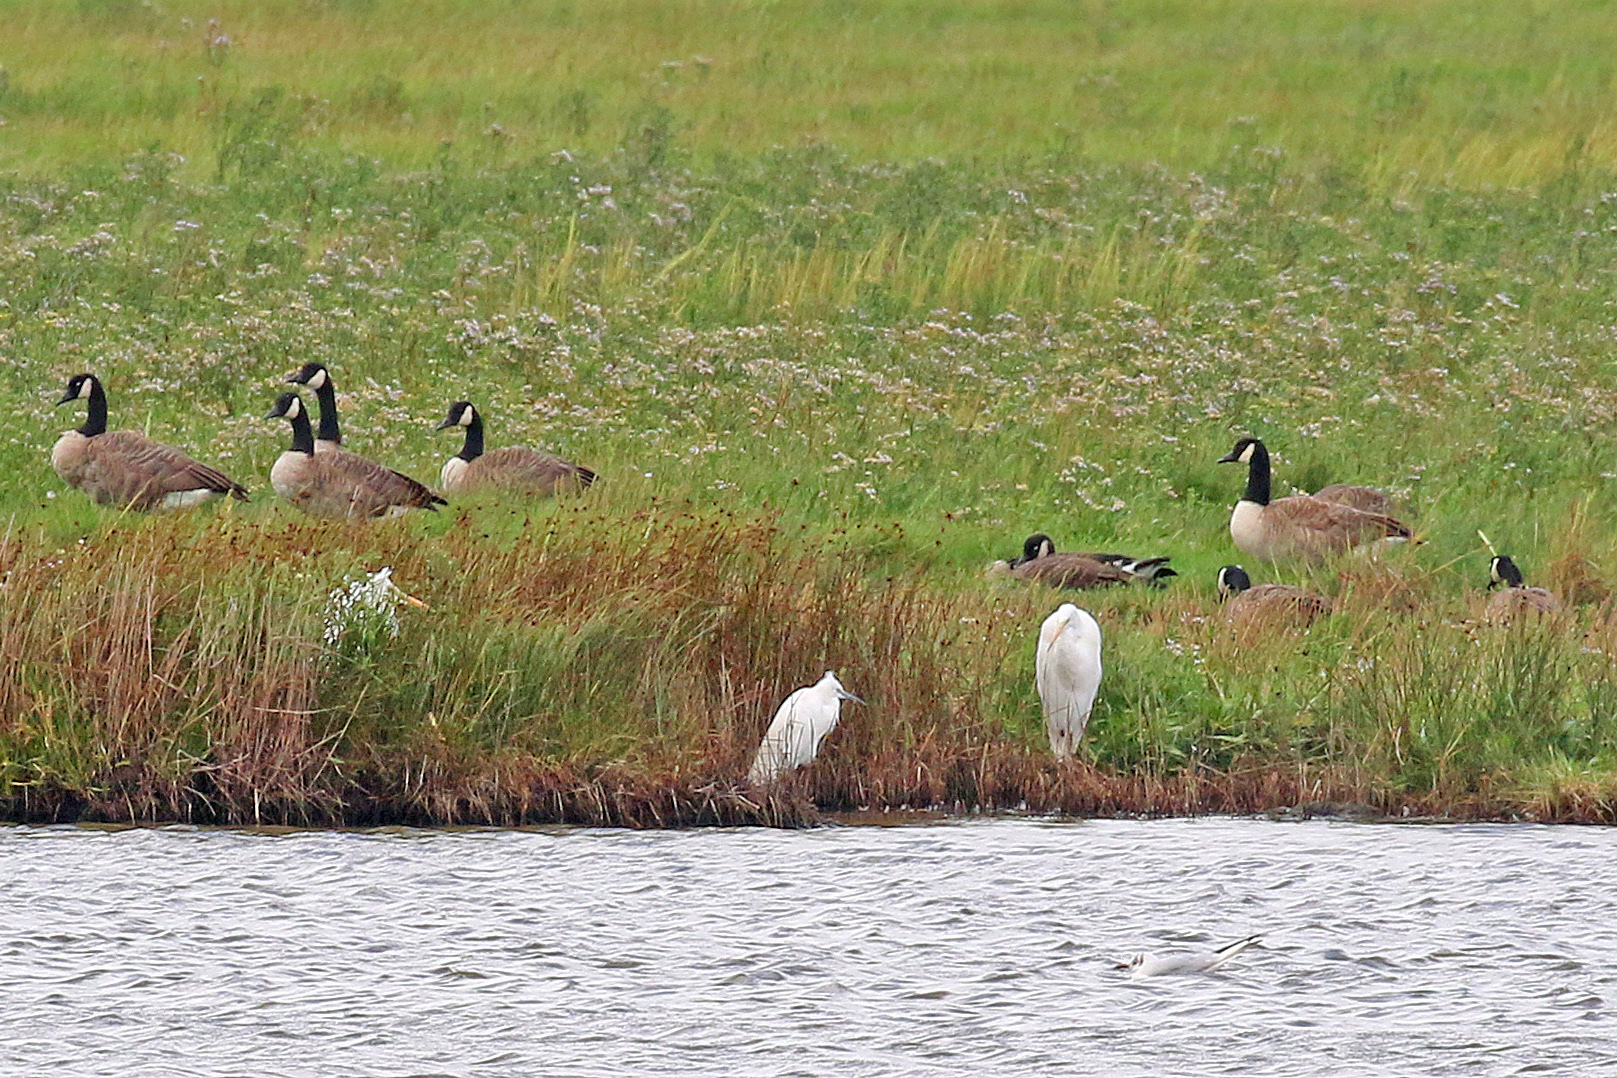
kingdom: Animalia
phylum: Chordata
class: Aves
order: Pelecaniformes
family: Ardeidae
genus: Ardea
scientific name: Ardea alba
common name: Great egret
